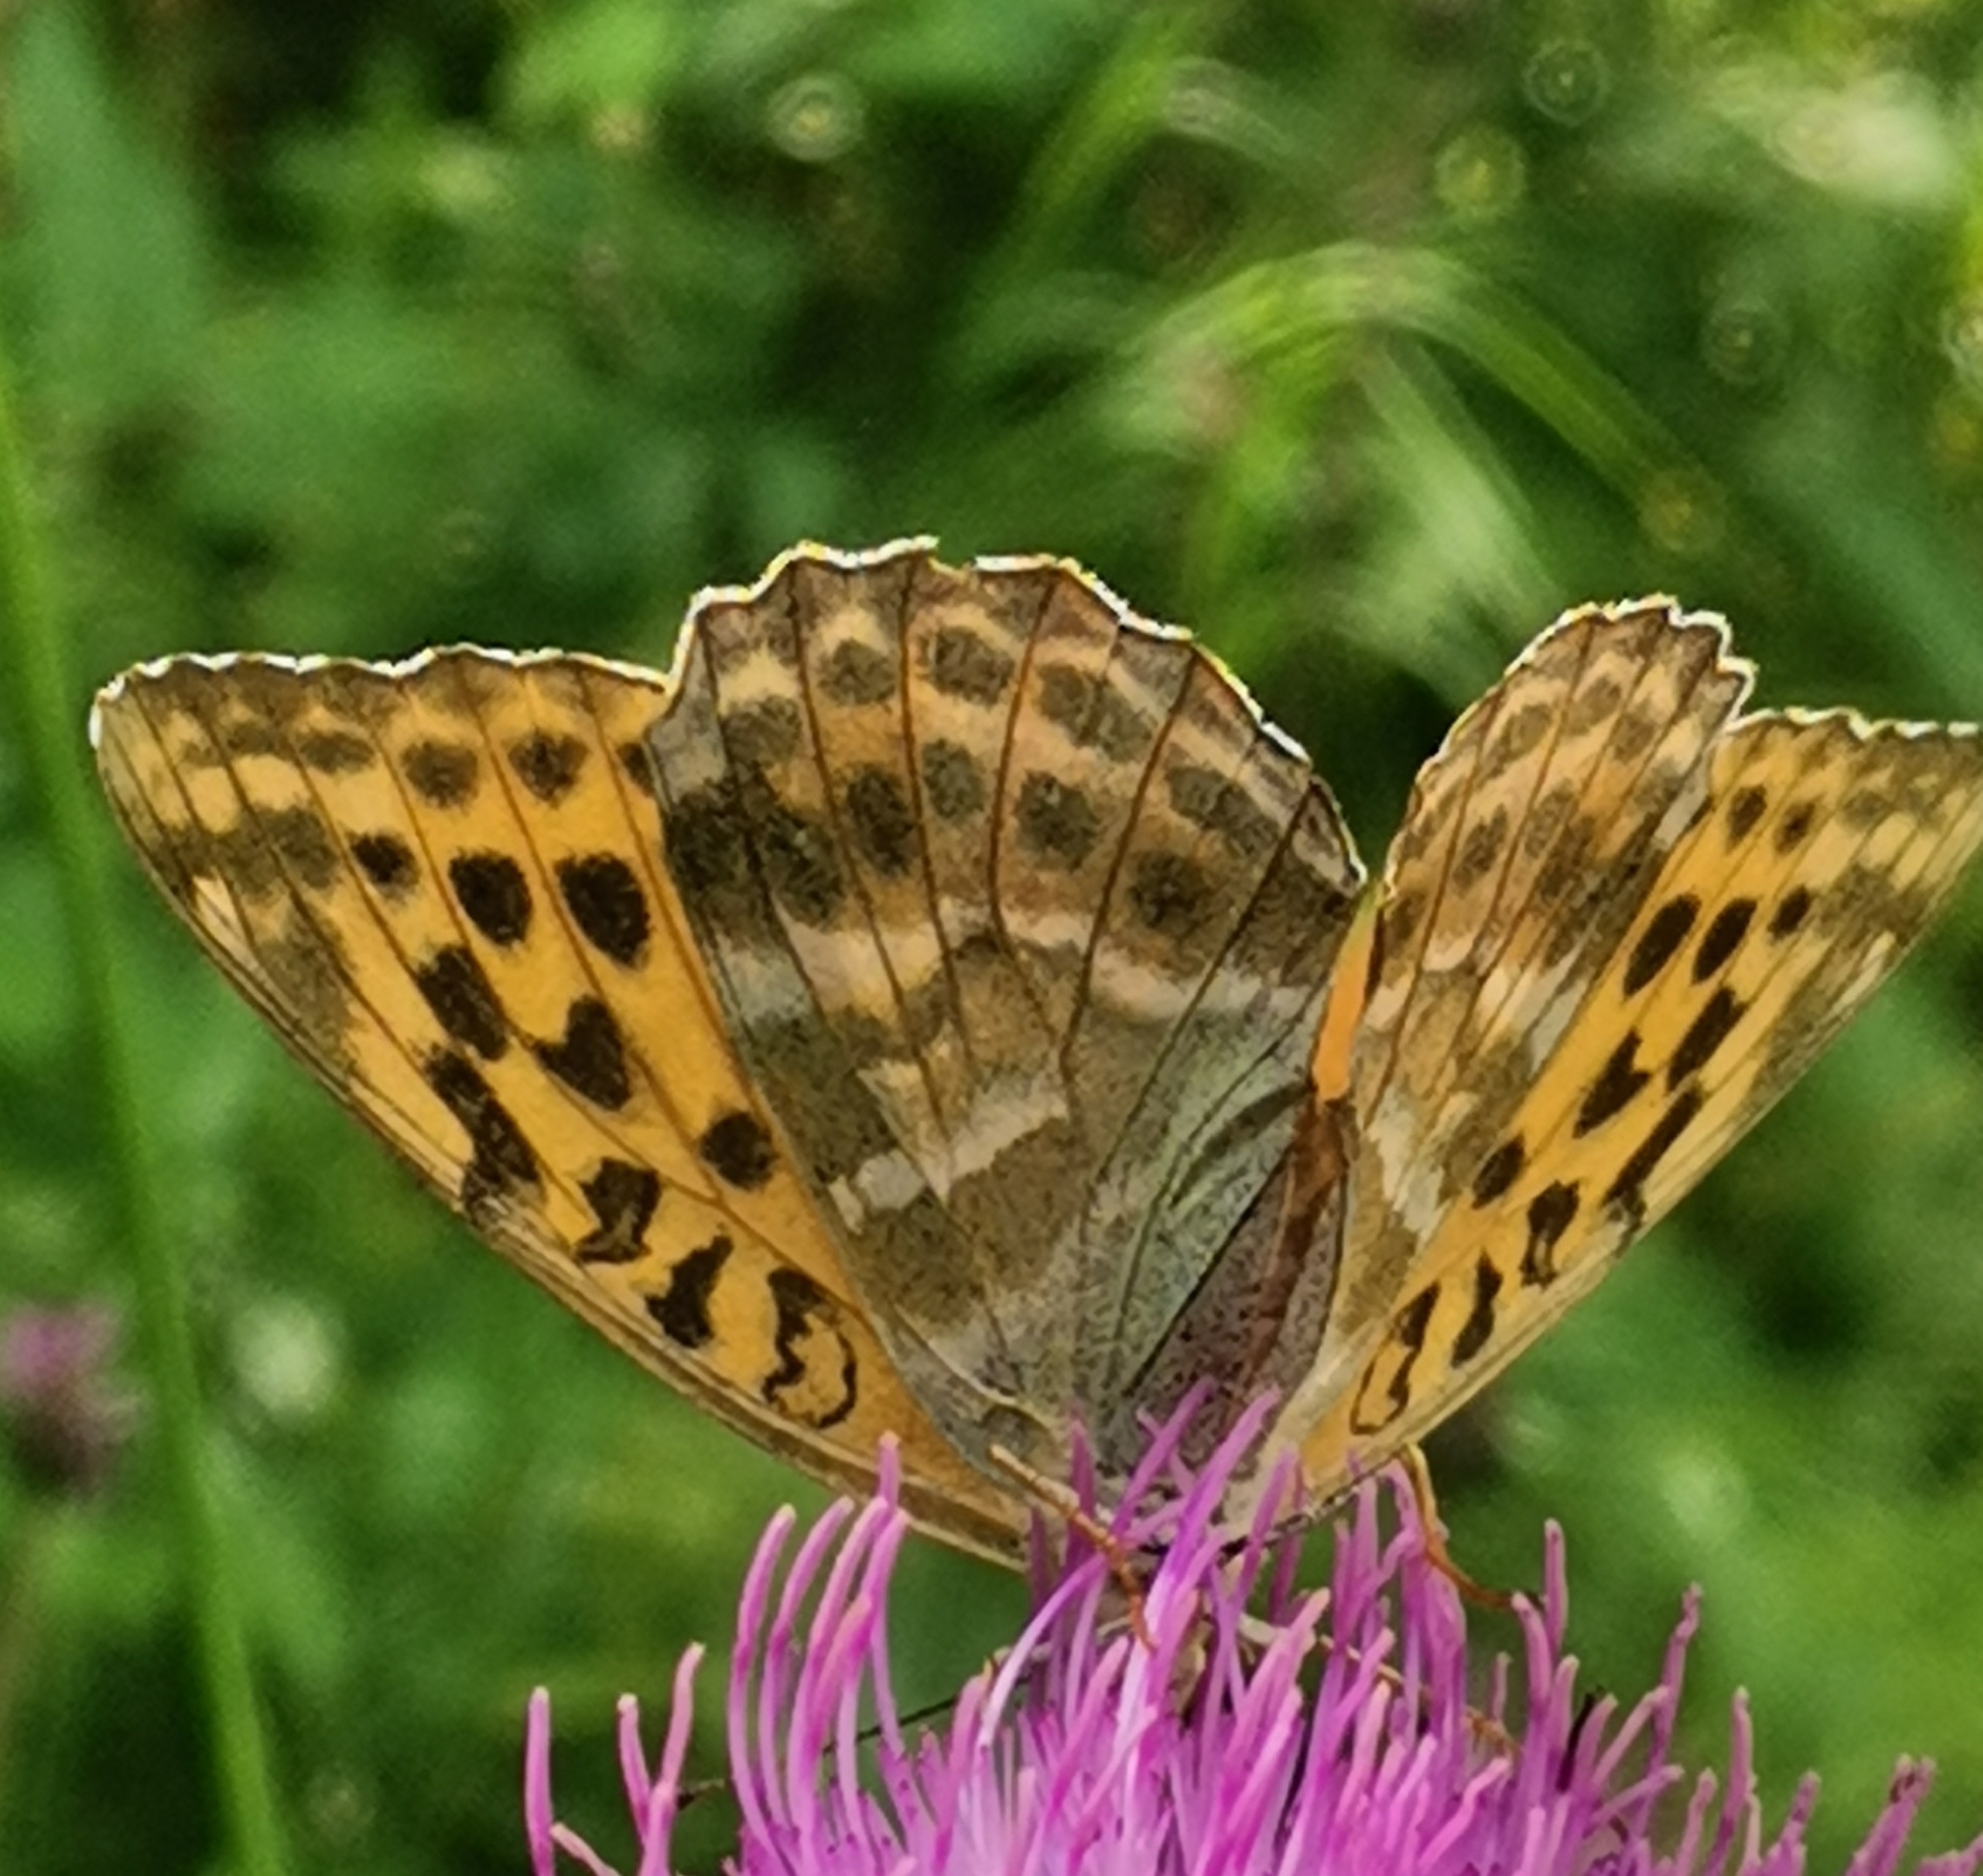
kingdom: Animalia
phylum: Arthropoda
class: Insecta
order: Lepidoptera
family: Nymphalidae
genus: Argynnis
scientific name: Argynnis paphia
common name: Silver-washed fritillary
